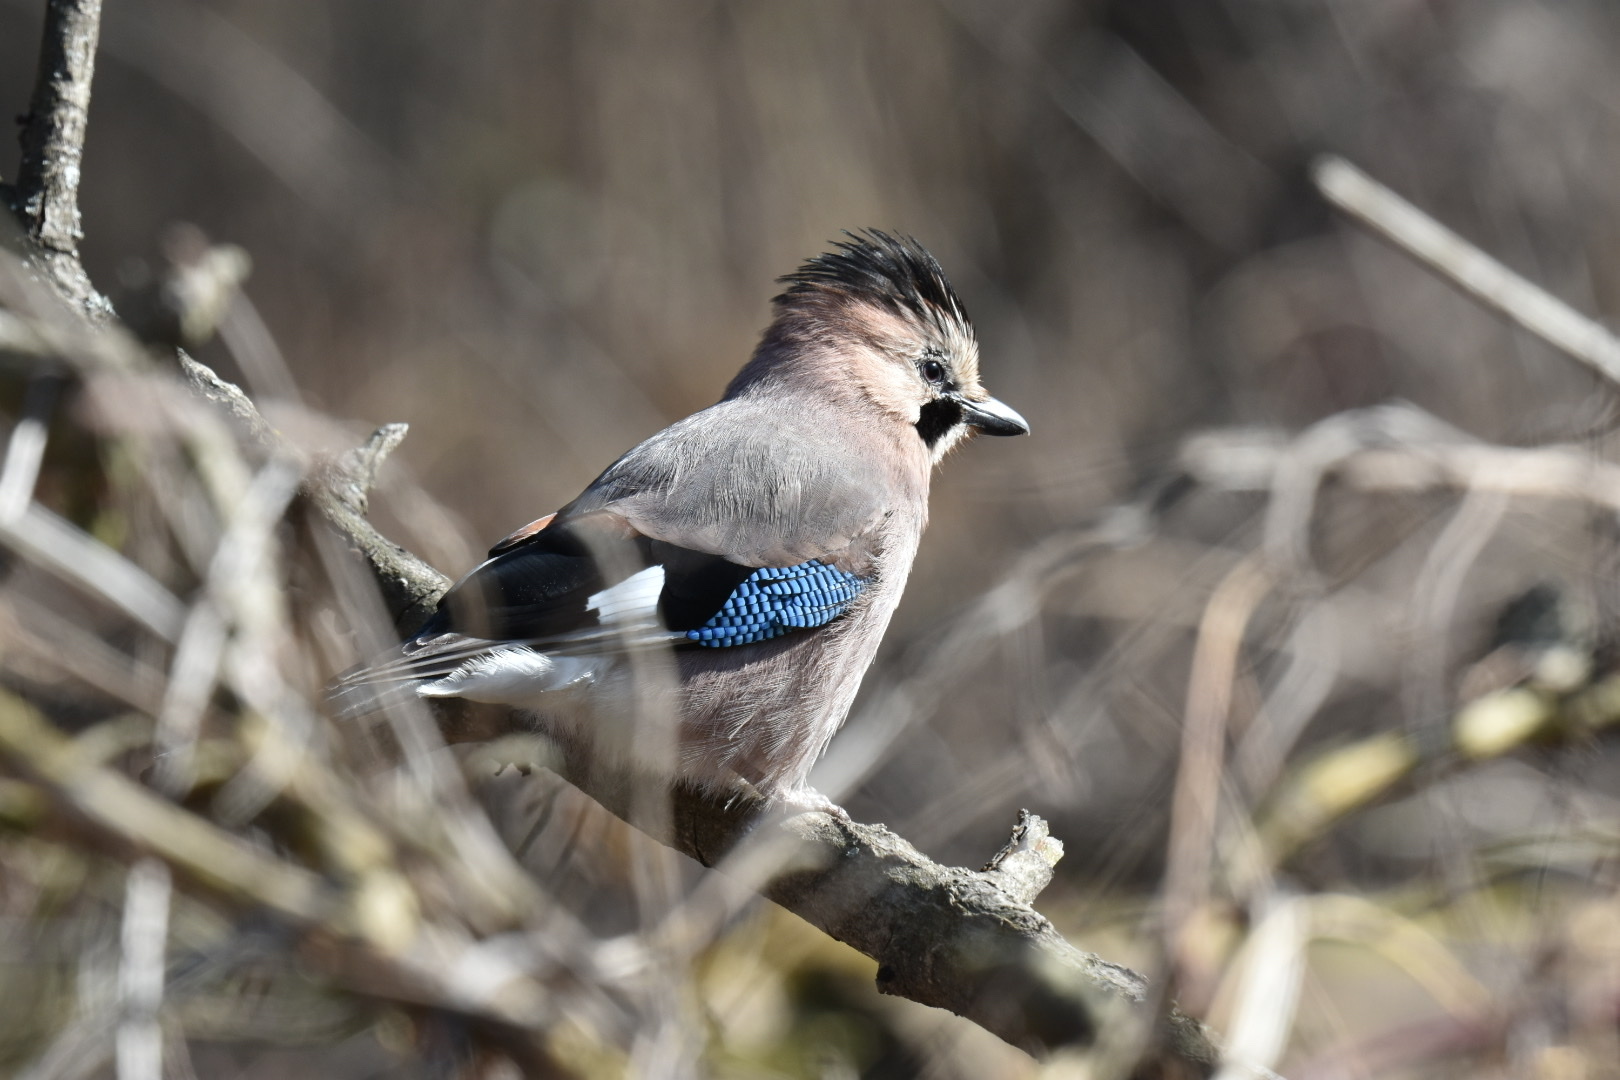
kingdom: Animalia
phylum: Chordata
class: Aves
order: Passeriformes
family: Corvidae
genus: Garrulus
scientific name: Garrulus glandarius
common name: Eurasian jay
